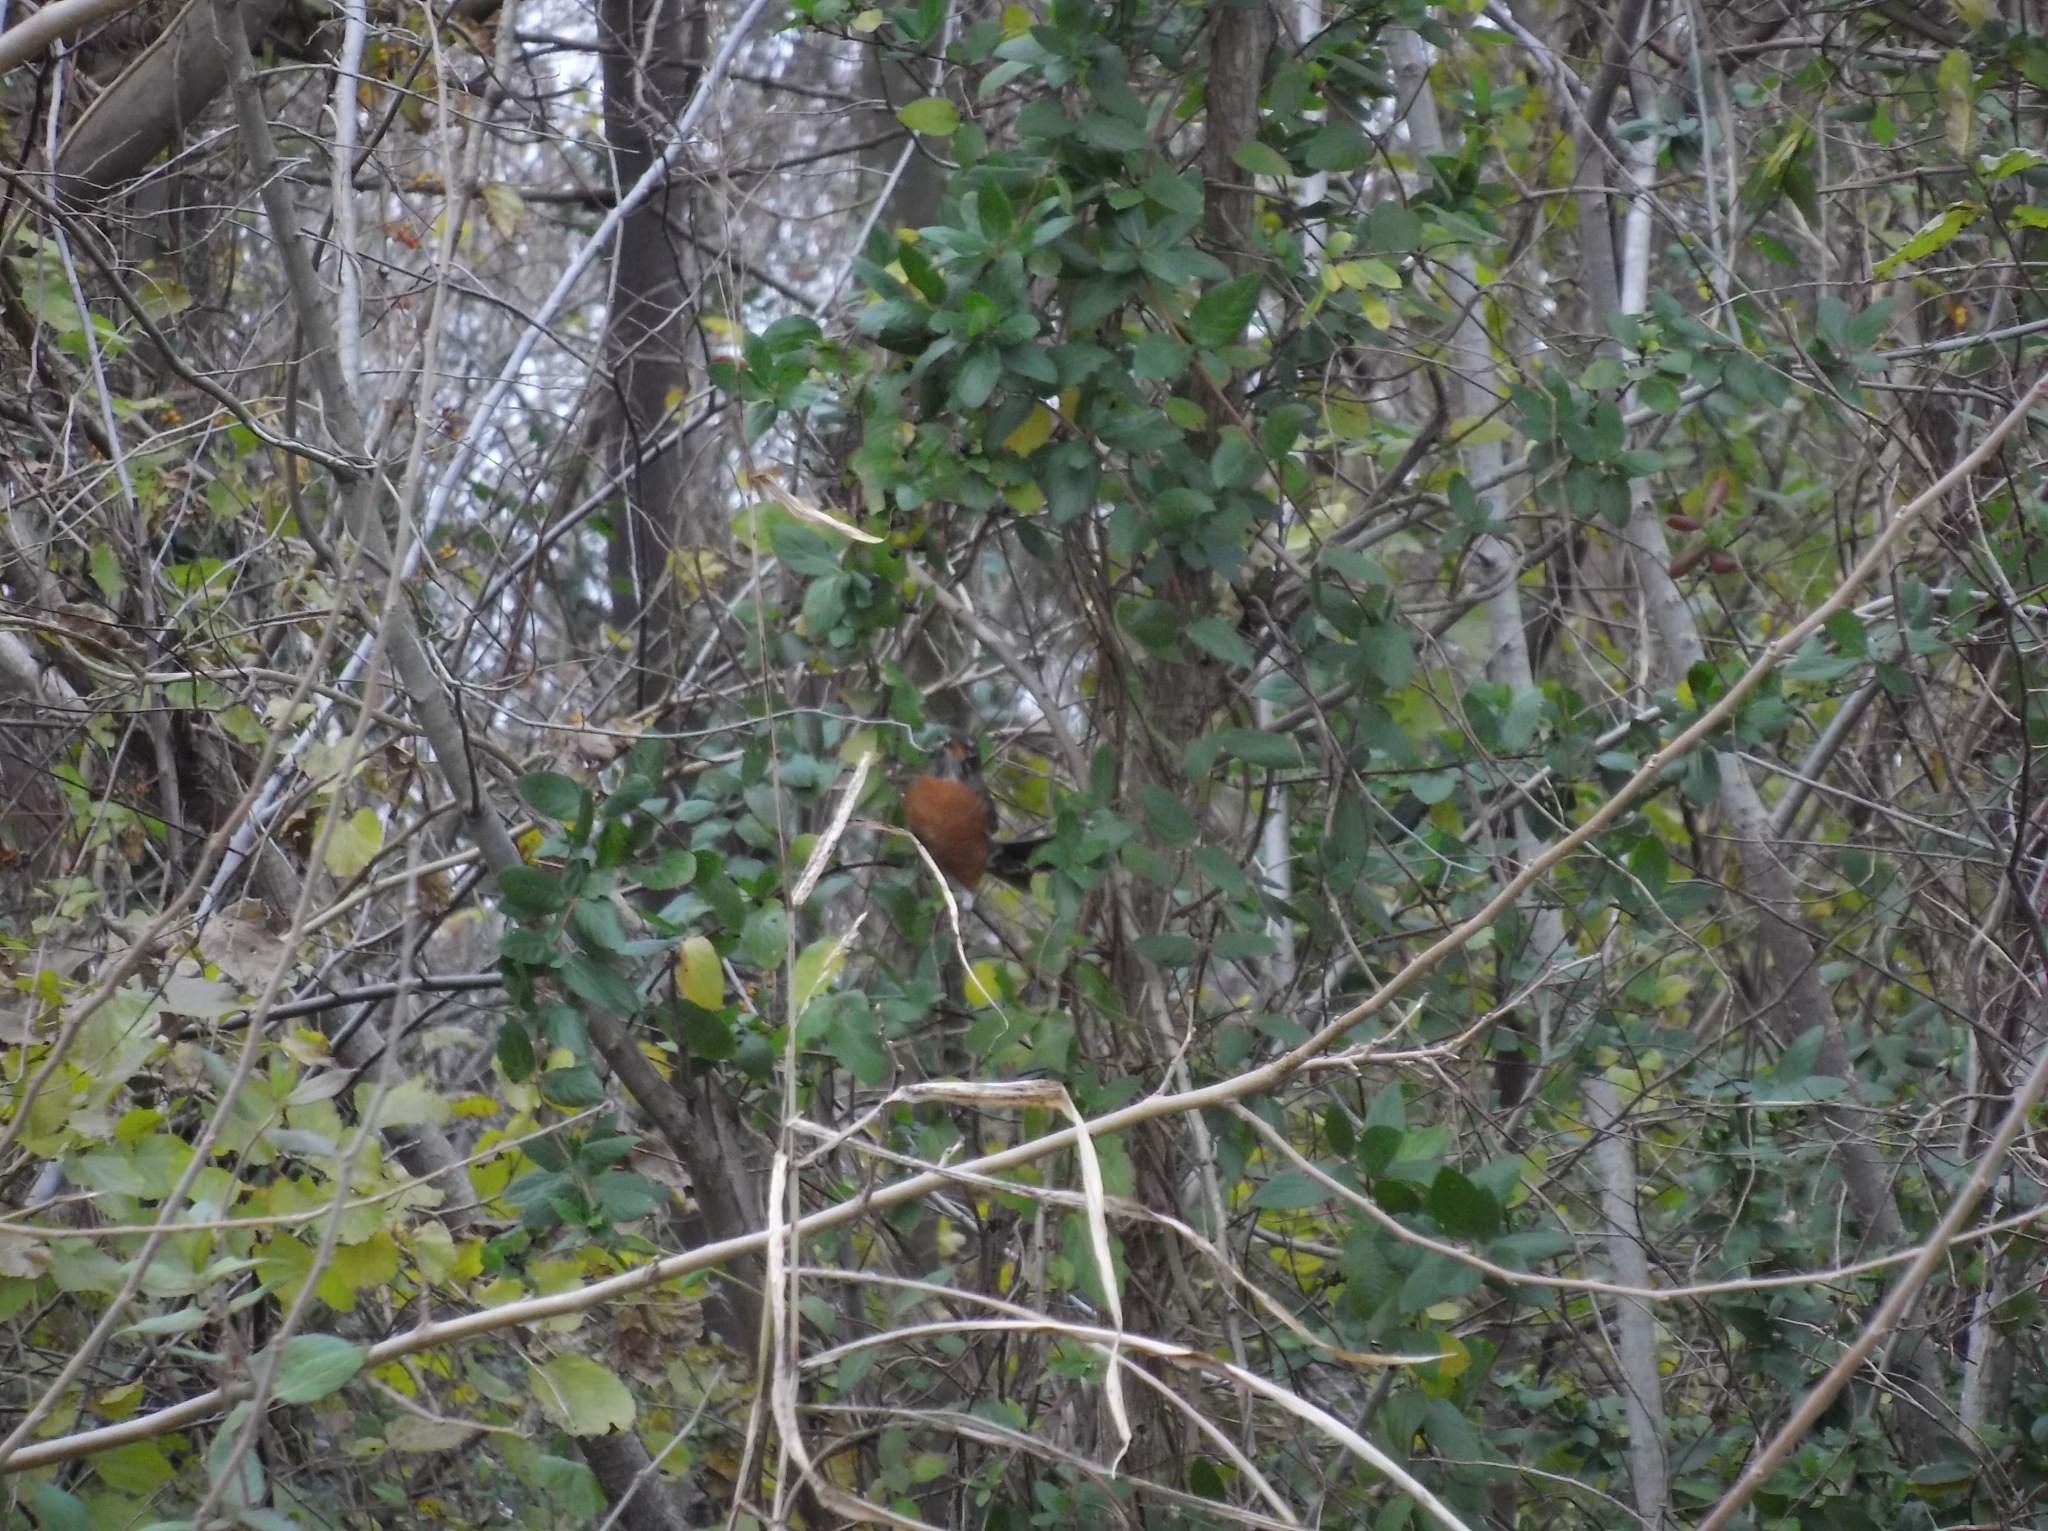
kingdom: Animalia
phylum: Chordata
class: Aves
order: Passeriformes
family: Turdidae
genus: Turdus
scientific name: Turdus migratorius
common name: American robin
